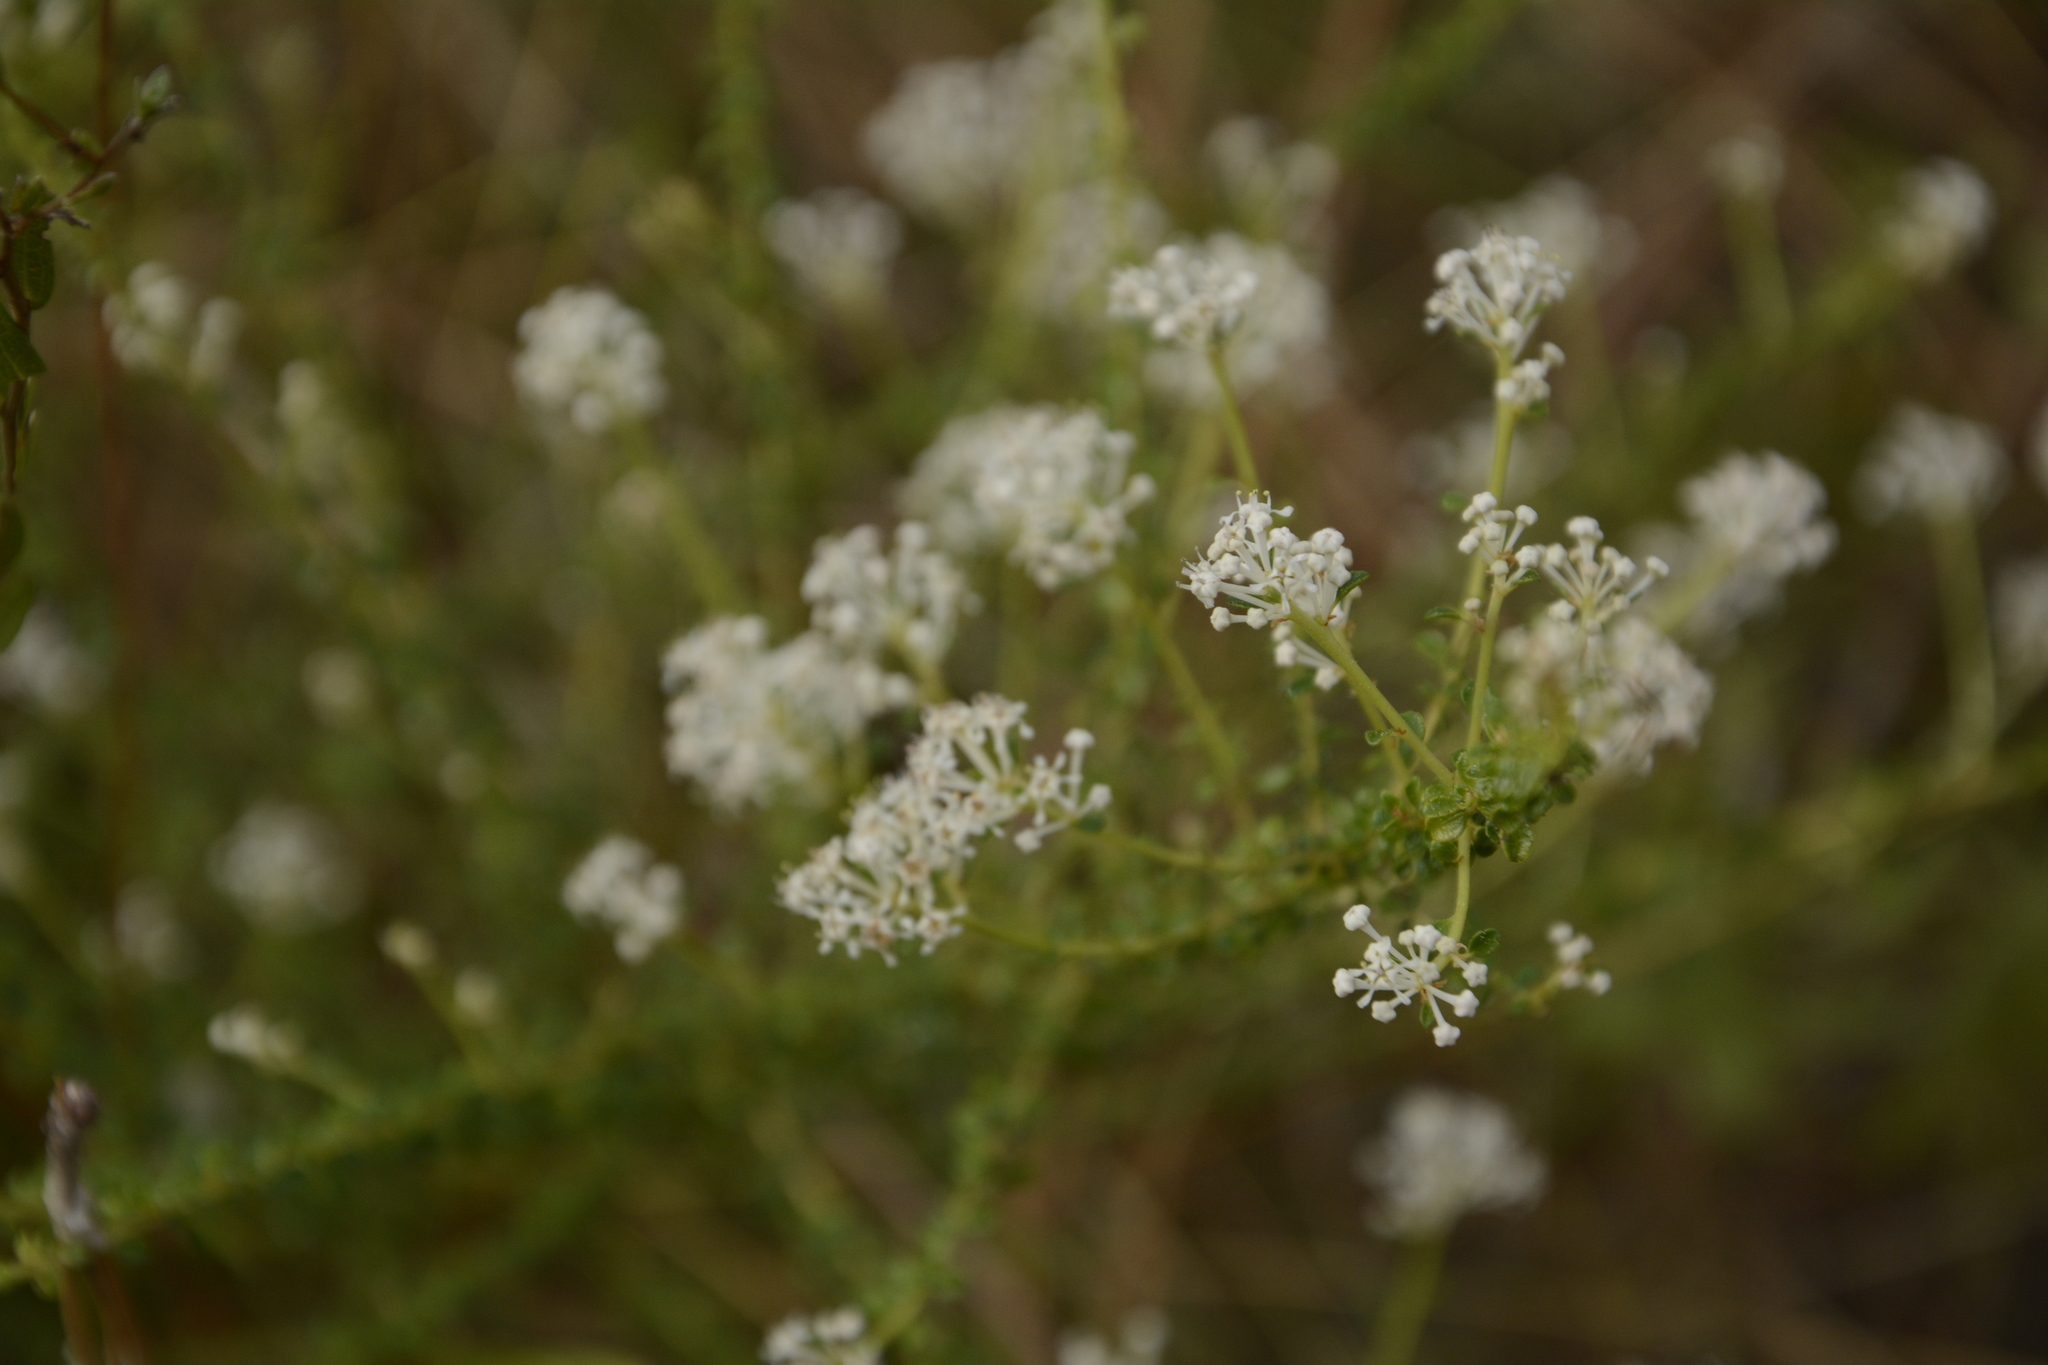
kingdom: Plantae
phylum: Tracheophyta
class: Magnoliopsida
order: Rosales
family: Rhamnaceae
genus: Ceanothus
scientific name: Ceanothus microphyllus
